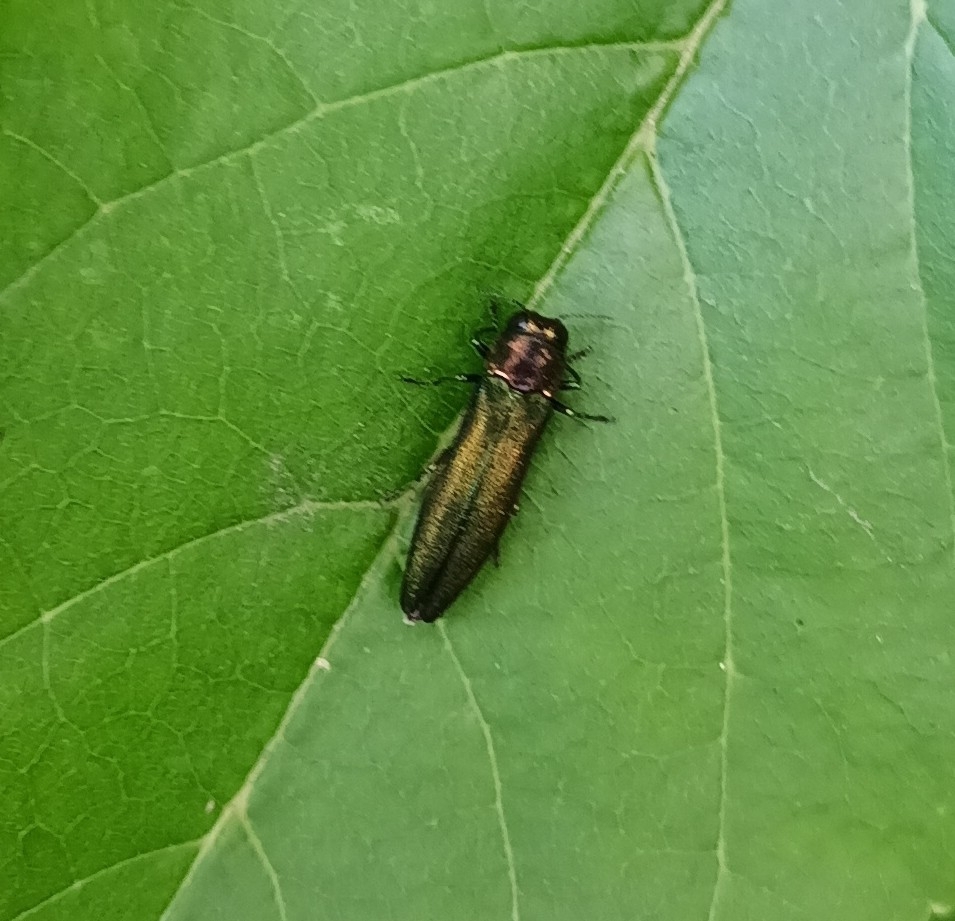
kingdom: Animalia
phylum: Arthropoda
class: Insecta
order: Coleoptera
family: Buprestidae
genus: Agrilus
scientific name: Agrilus planipennis
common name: Emerald ash borer
